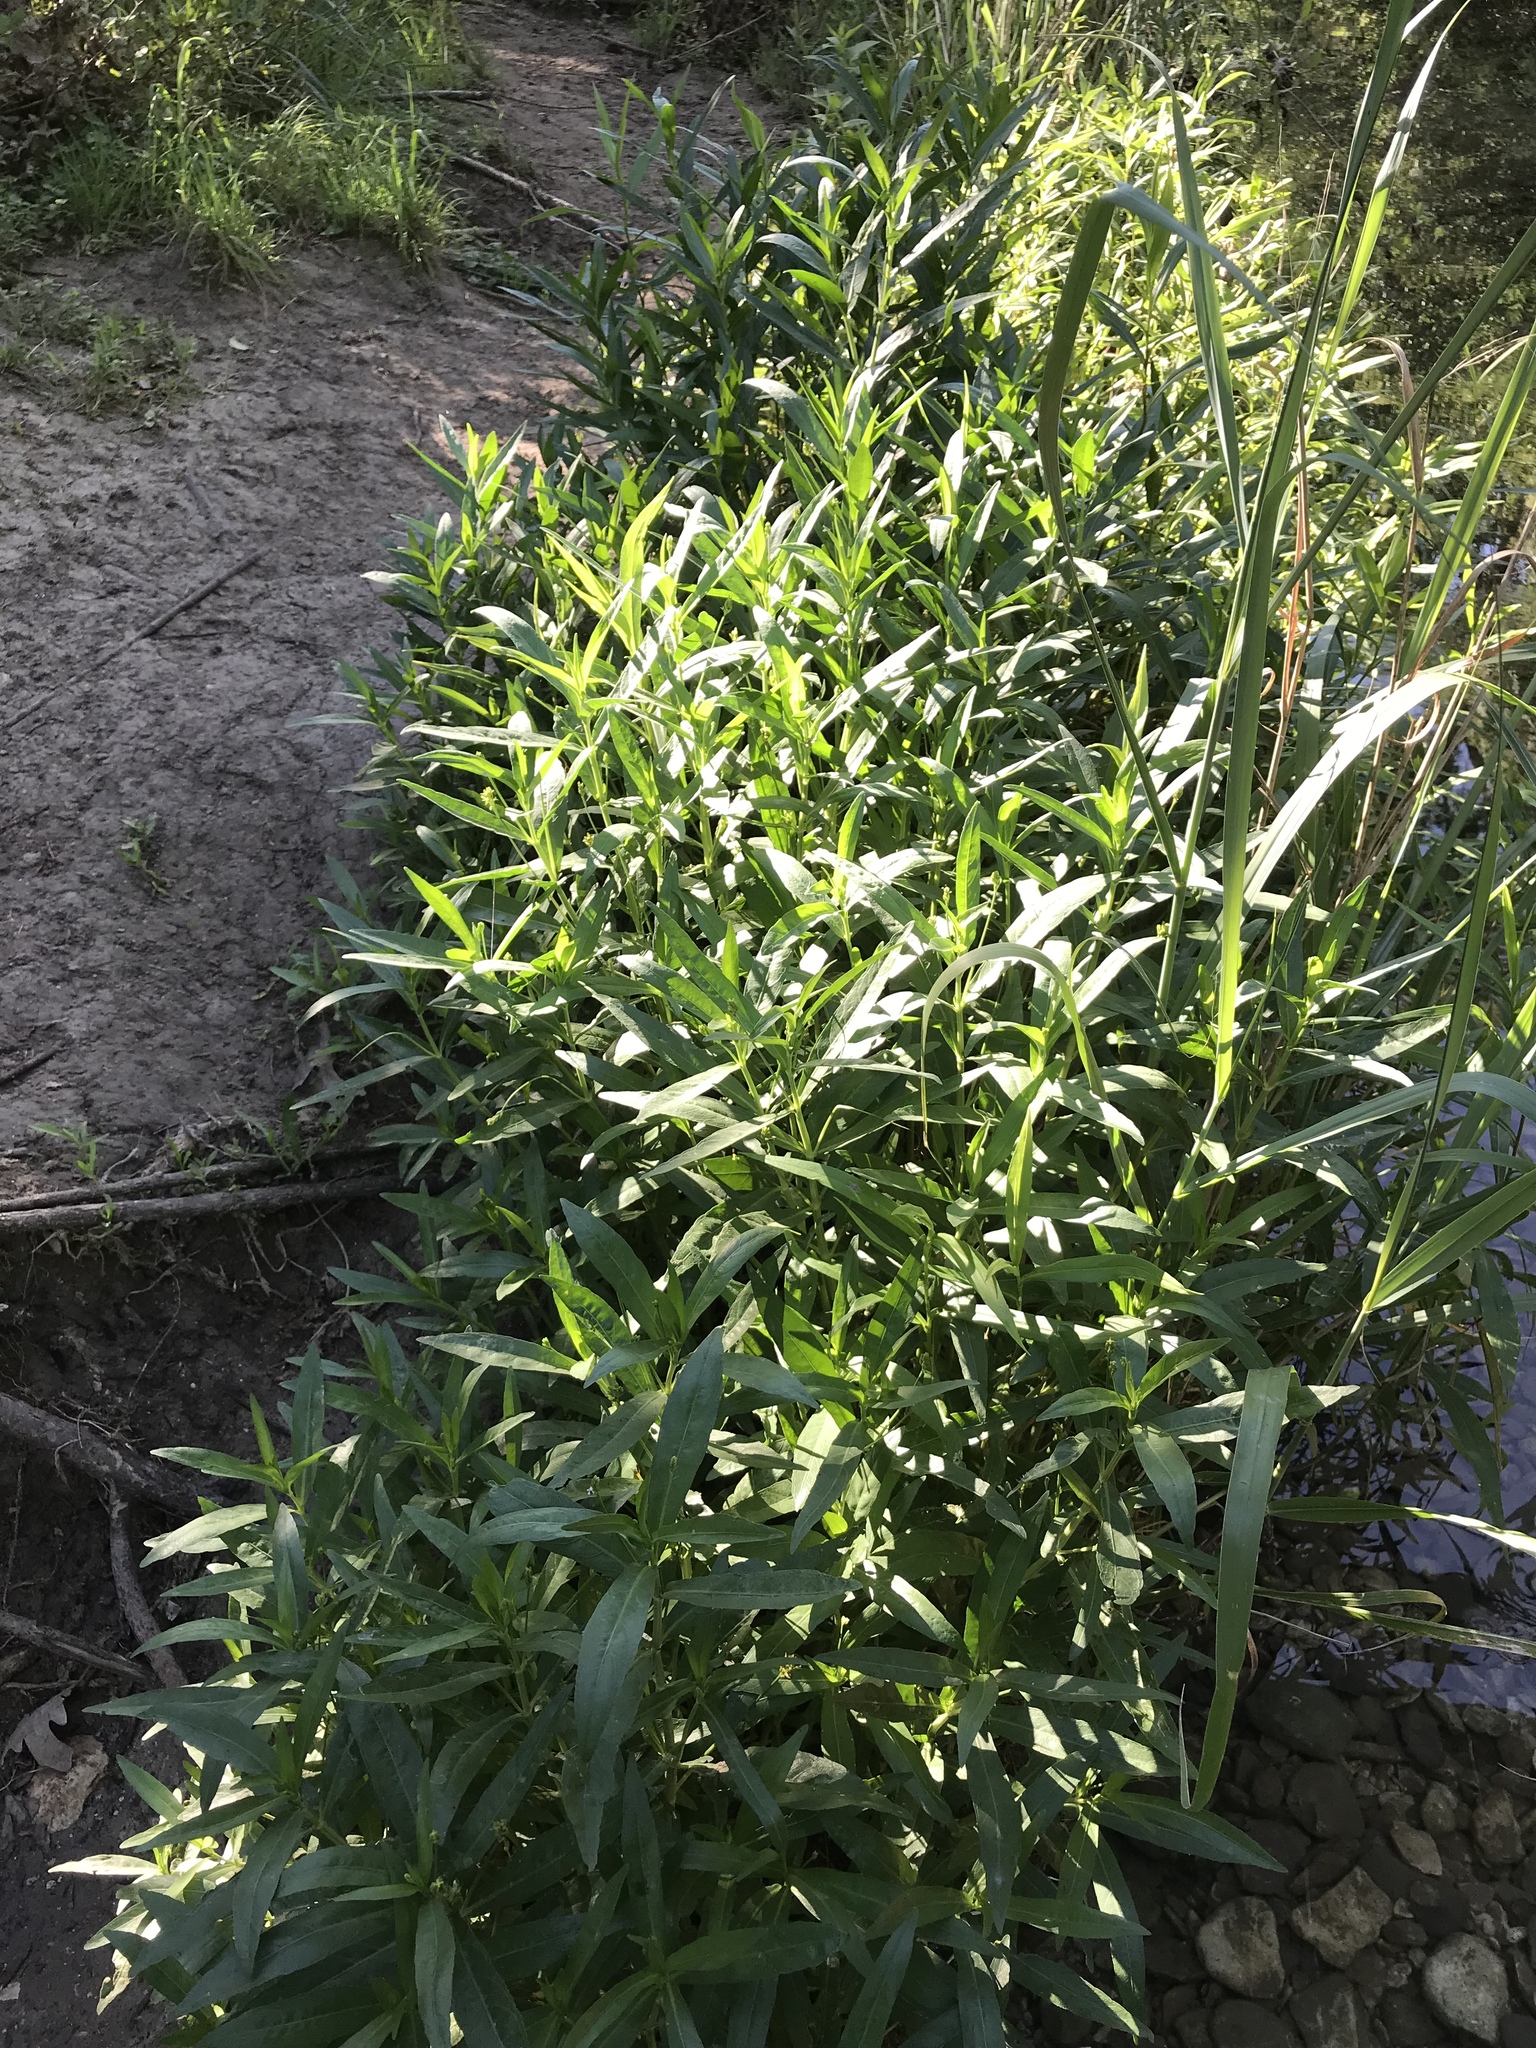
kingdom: Plantae
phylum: Tracheophyta
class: Magnoliopsida
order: Lamiales
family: Acanthaceae
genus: Dianthera
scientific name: Dianthera americana
